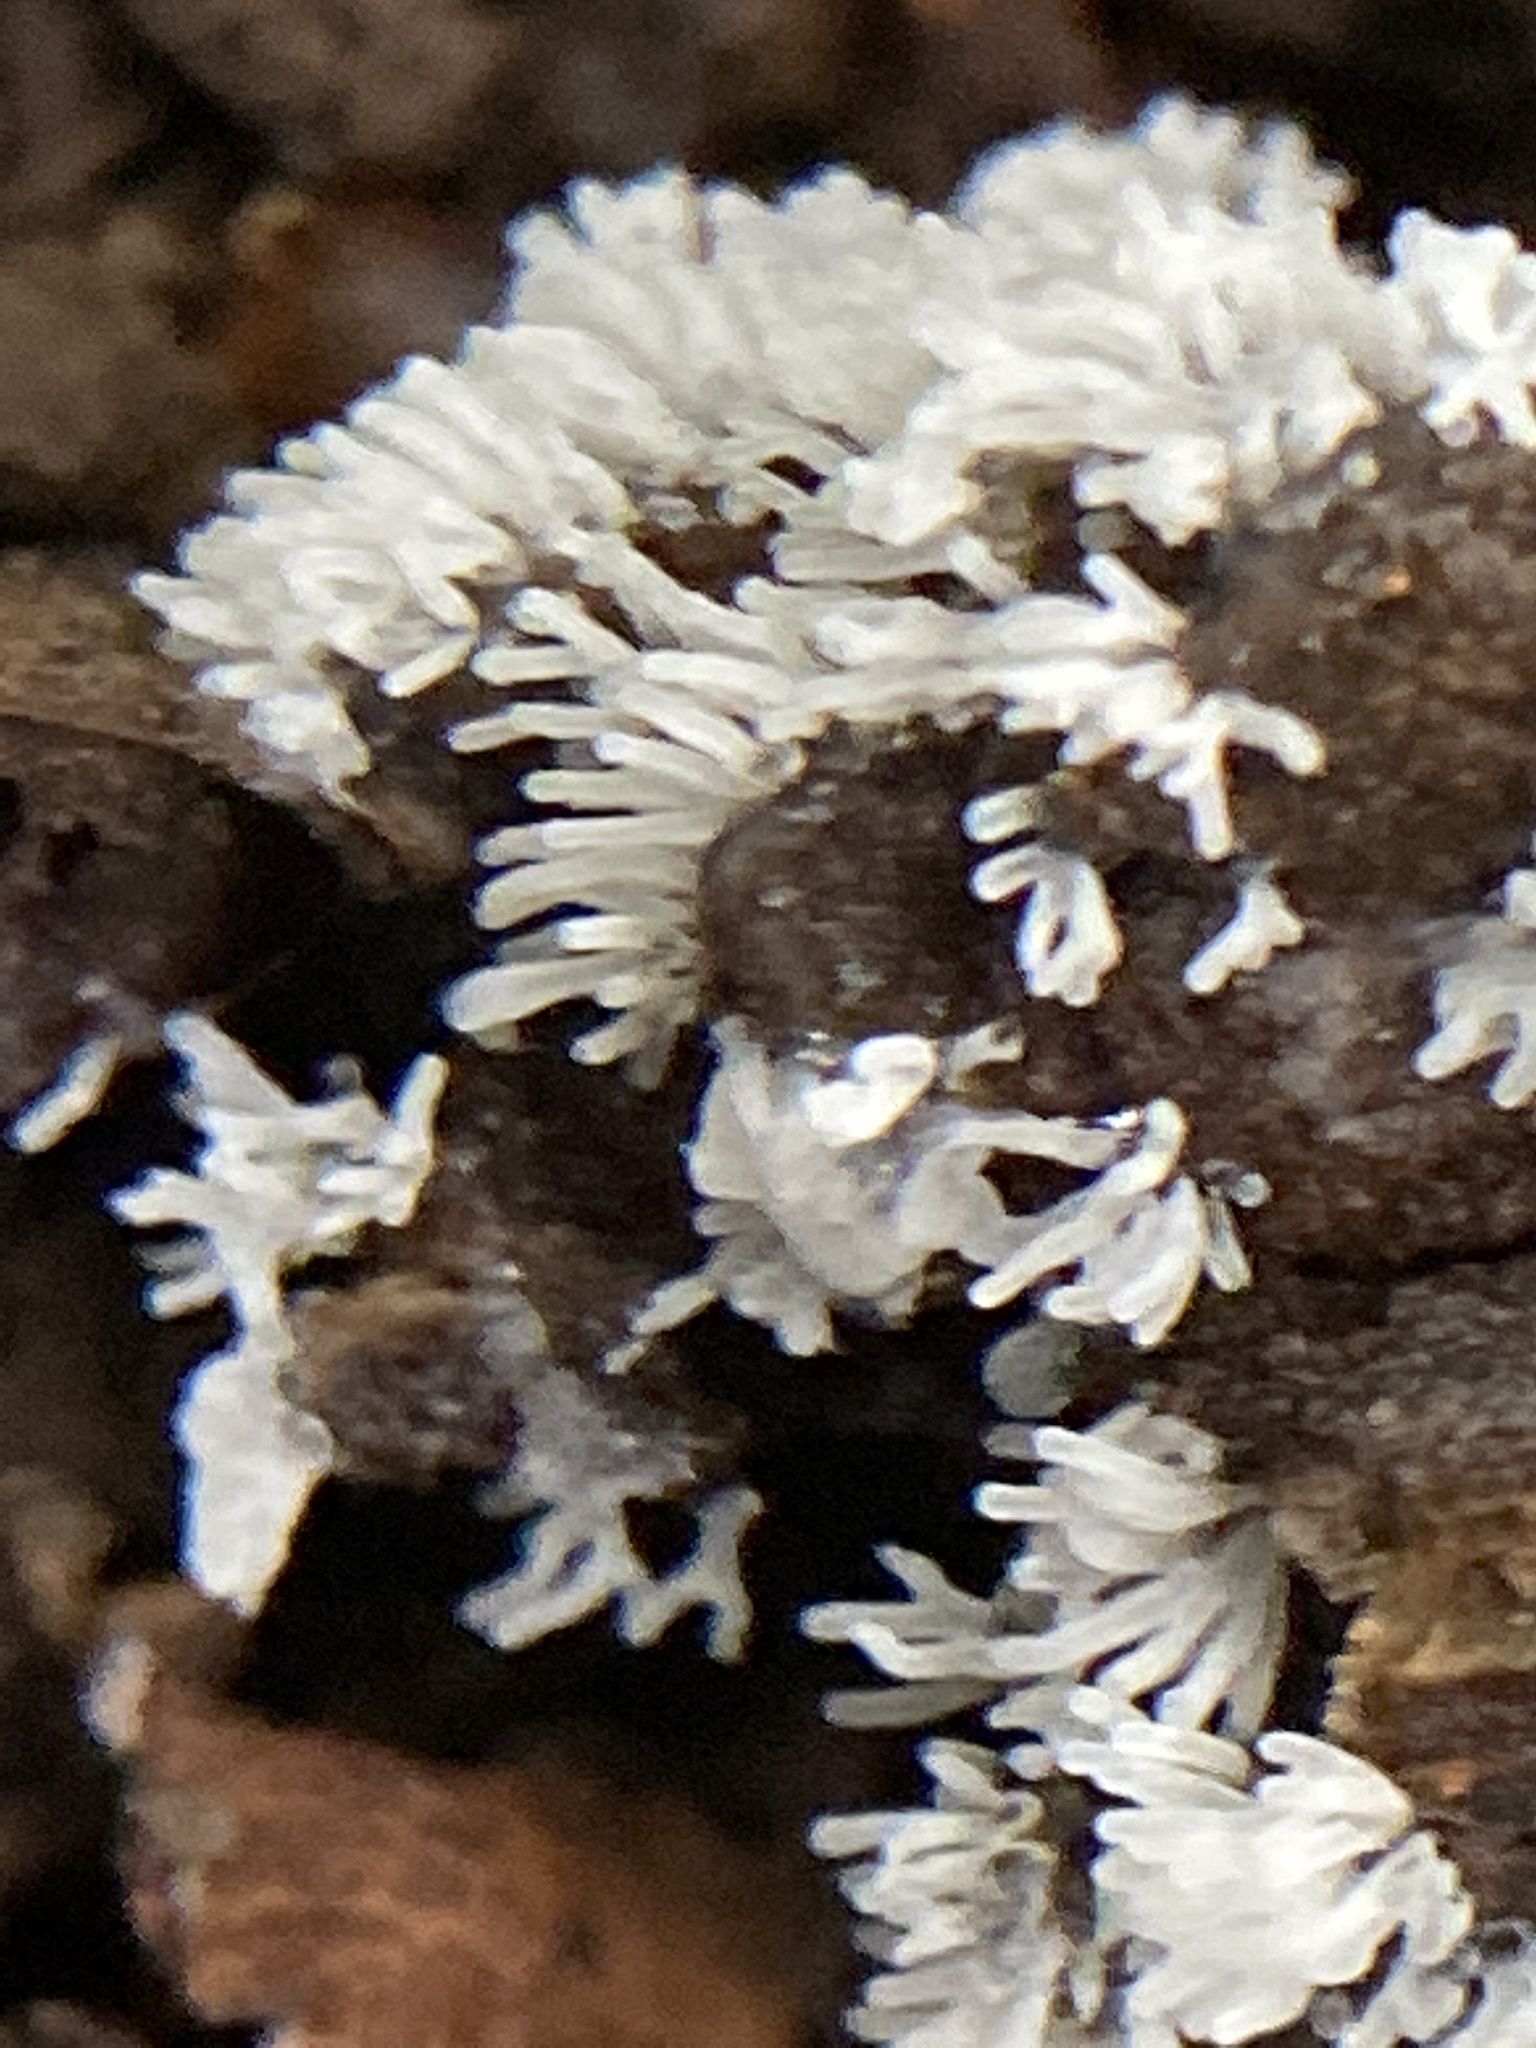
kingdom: Protozoa
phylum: Mycetozoa
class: Protosteliomycetes
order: Ceratiomyxales
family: Ceratiomyxaceae
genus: Ceratiomyxa
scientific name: Ceratiomyxa fruticulosa
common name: Honeycomb coral slime mold
